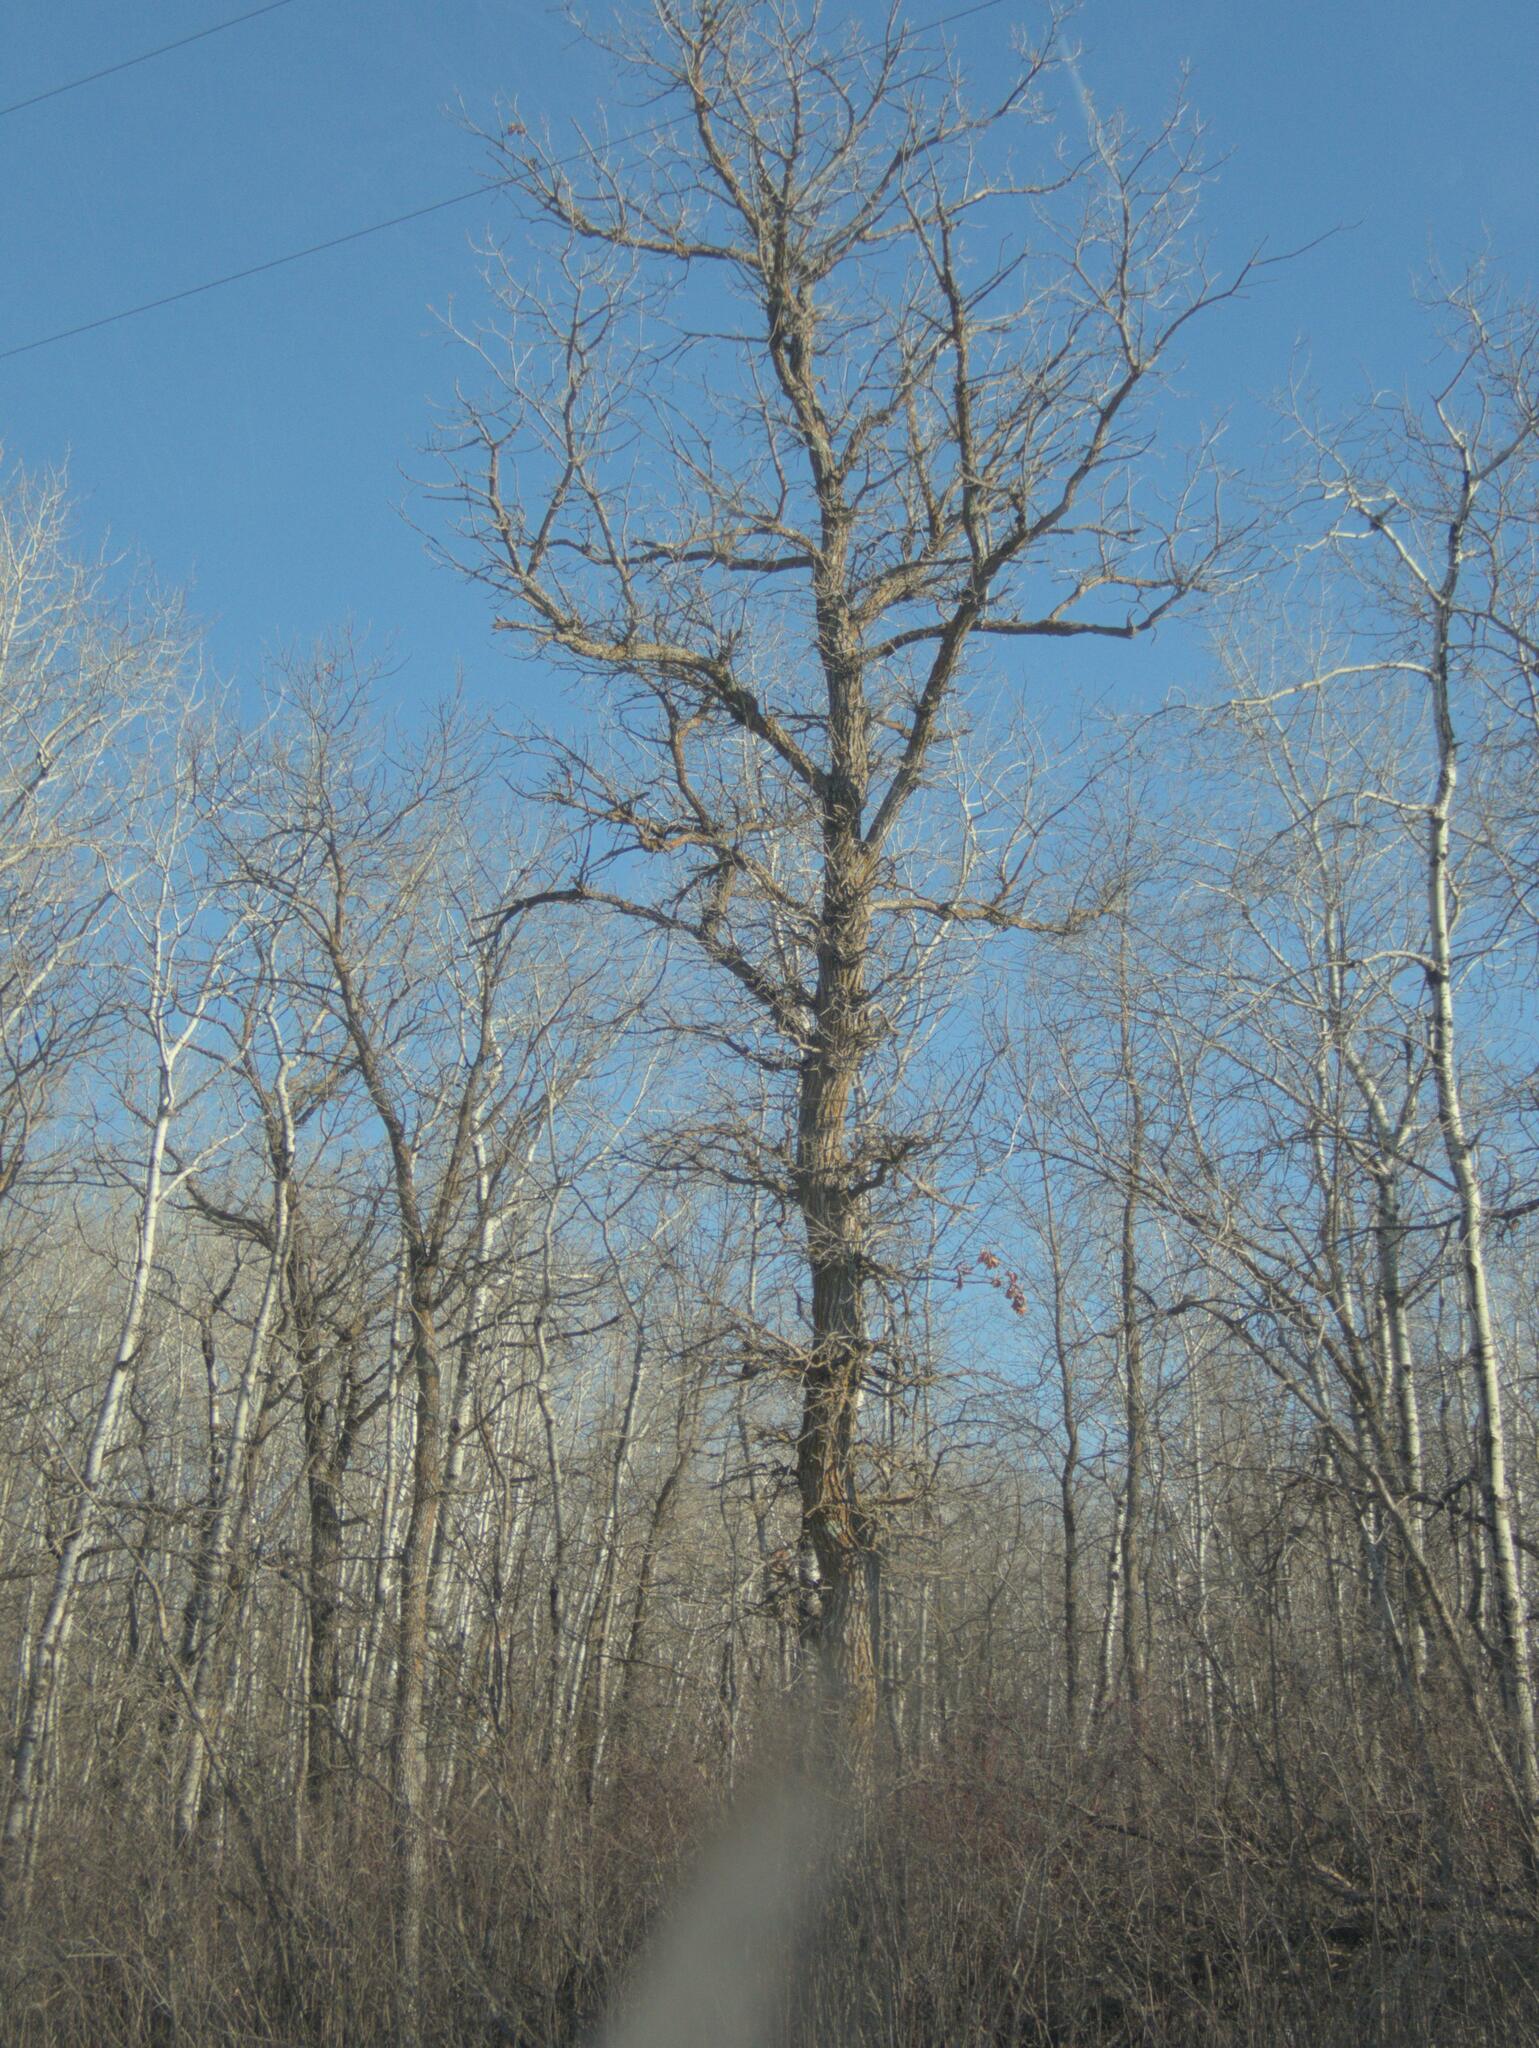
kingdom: Plantae
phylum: Tracheophyta
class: Magnoliopsida
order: Fagales
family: Fagaceae
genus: Quercus
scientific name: Quercus macrocarpa
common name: Bur oak
